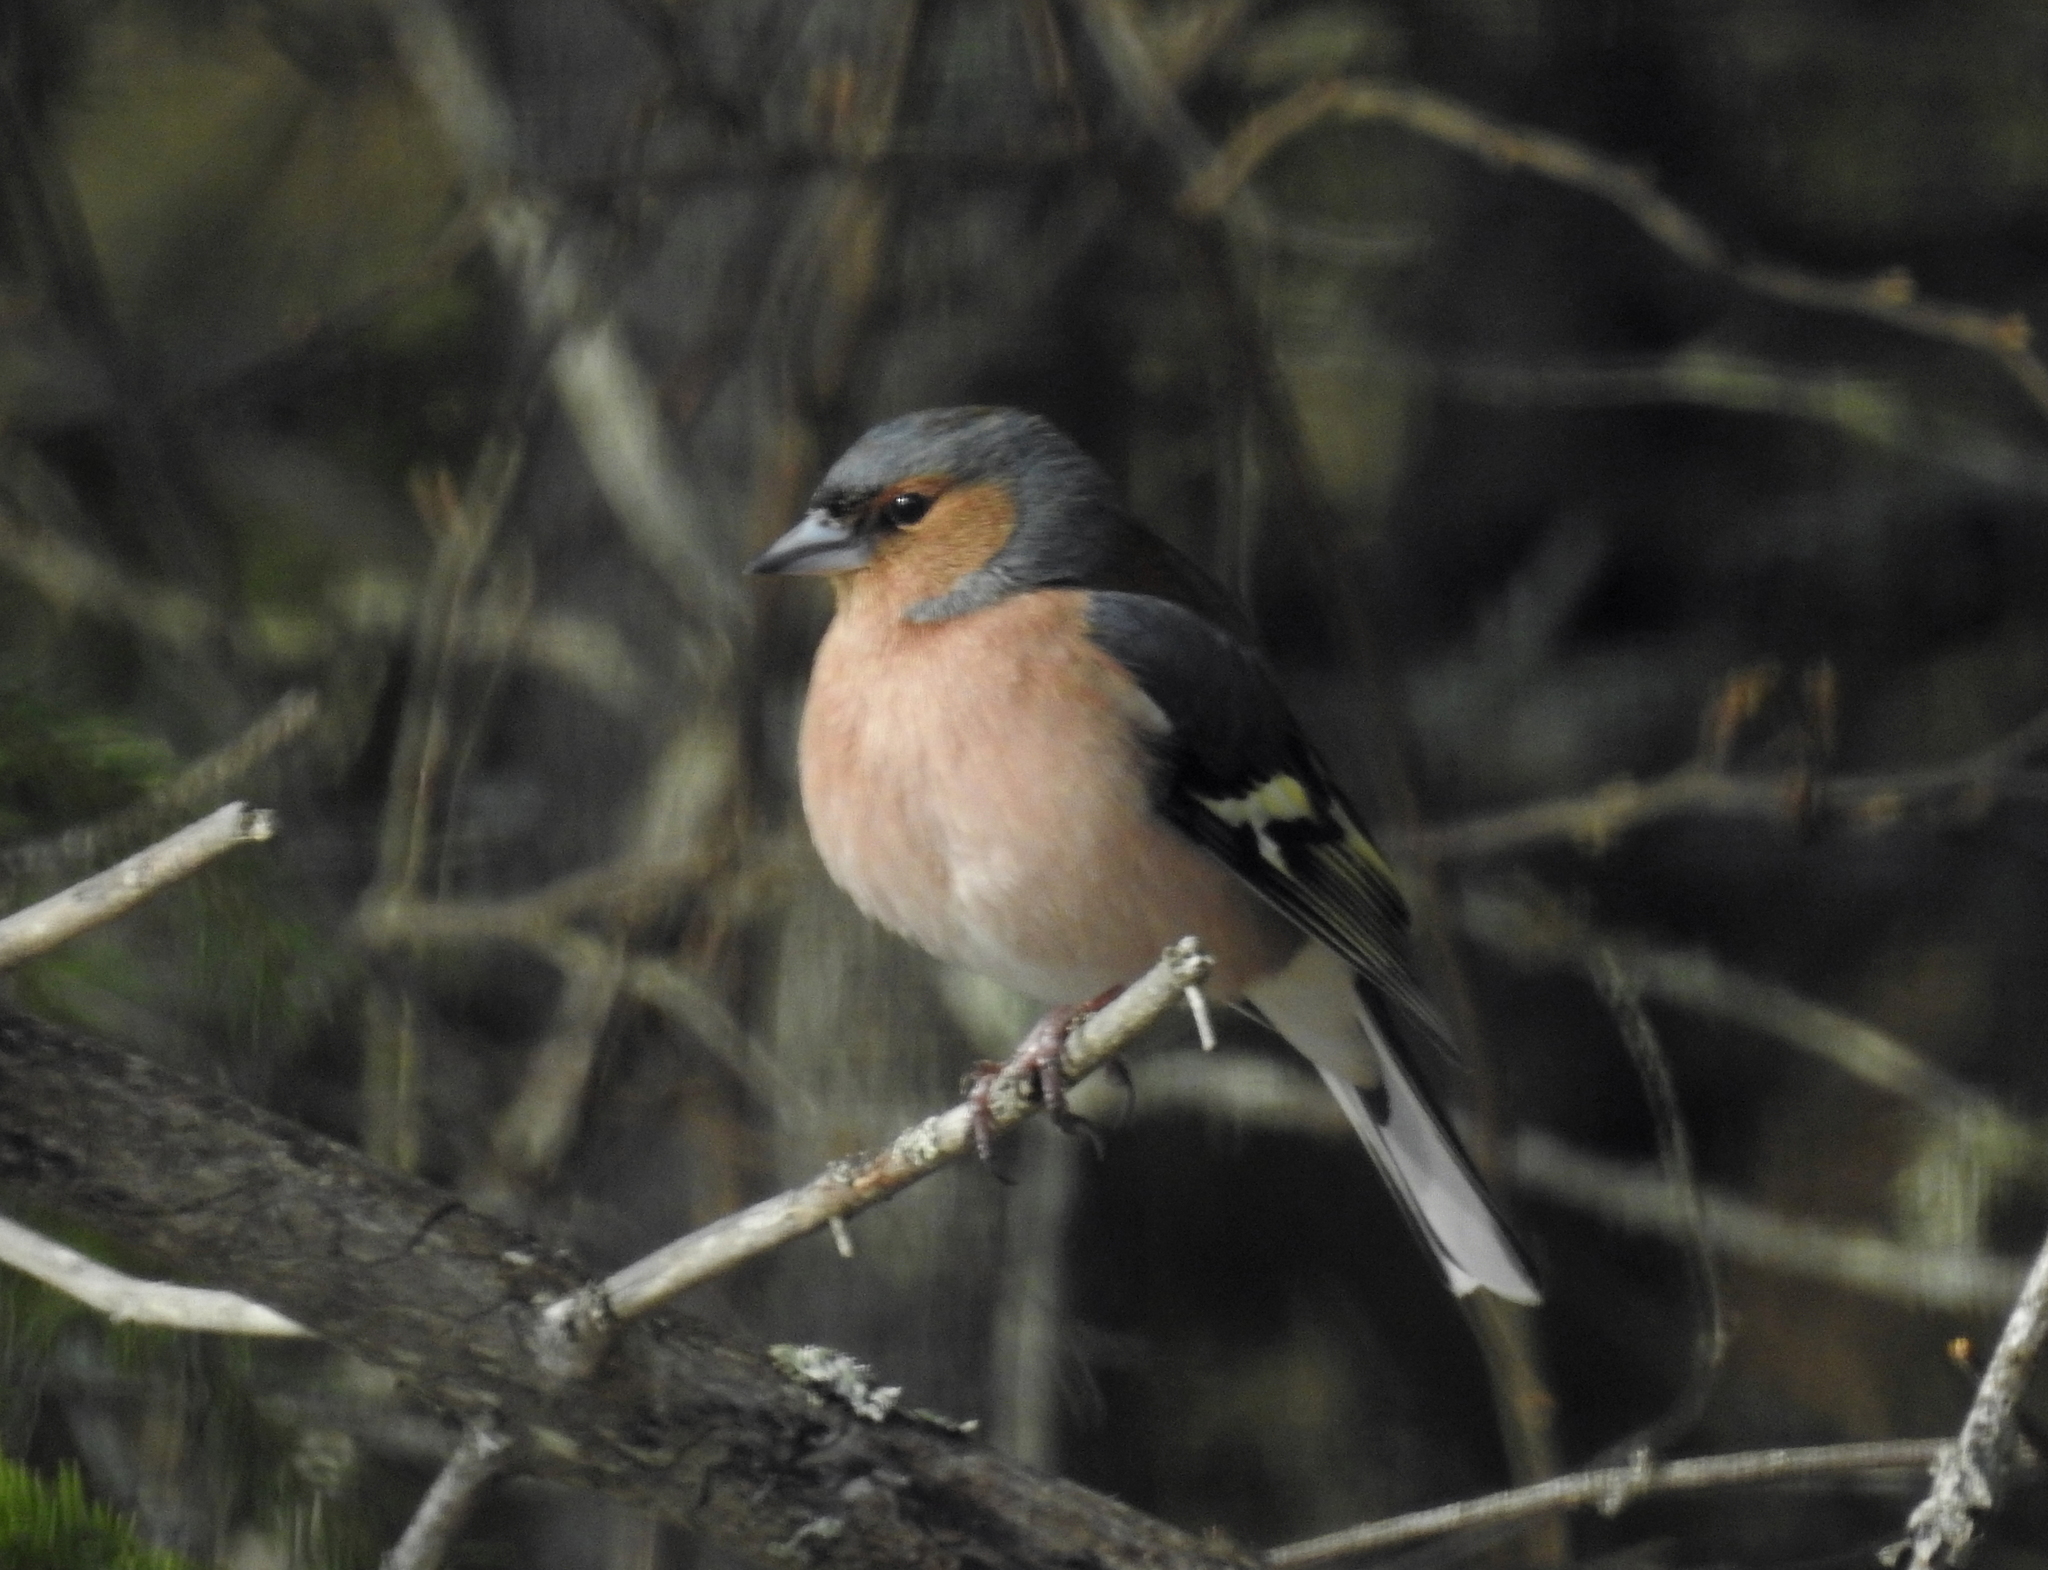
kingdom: Animalia
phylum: Chordata
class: Aves
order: Passeriformes
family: Fringillidae
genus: Fringilla
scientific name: Fringilla coelebs
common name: Common chaffinch
